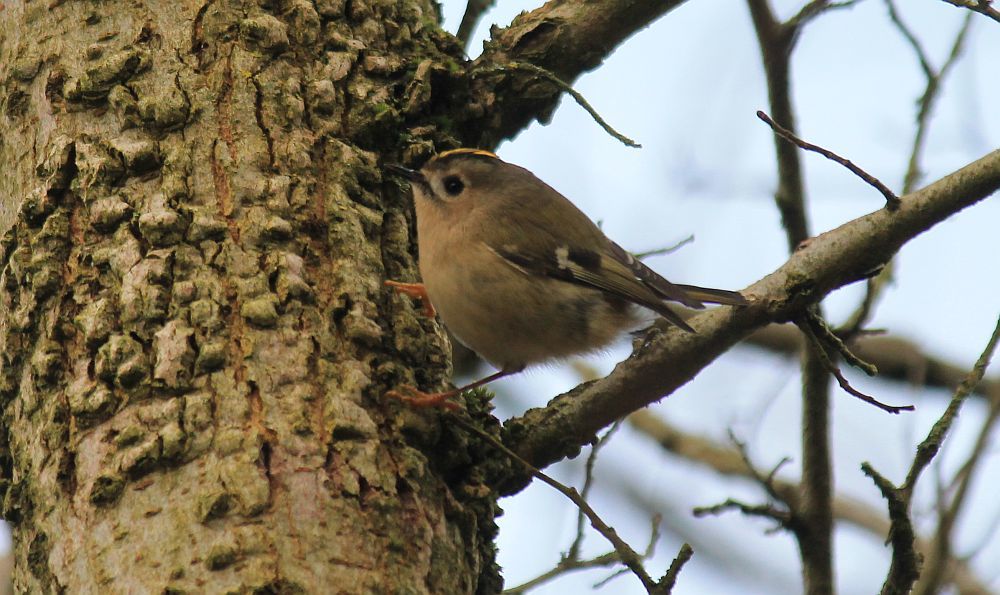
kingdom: Animalia
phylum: Chordata
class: Aves
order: Passeriformes
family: Regulidae
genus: Regulus
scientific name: Regulus regulus
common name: Goldcrest
